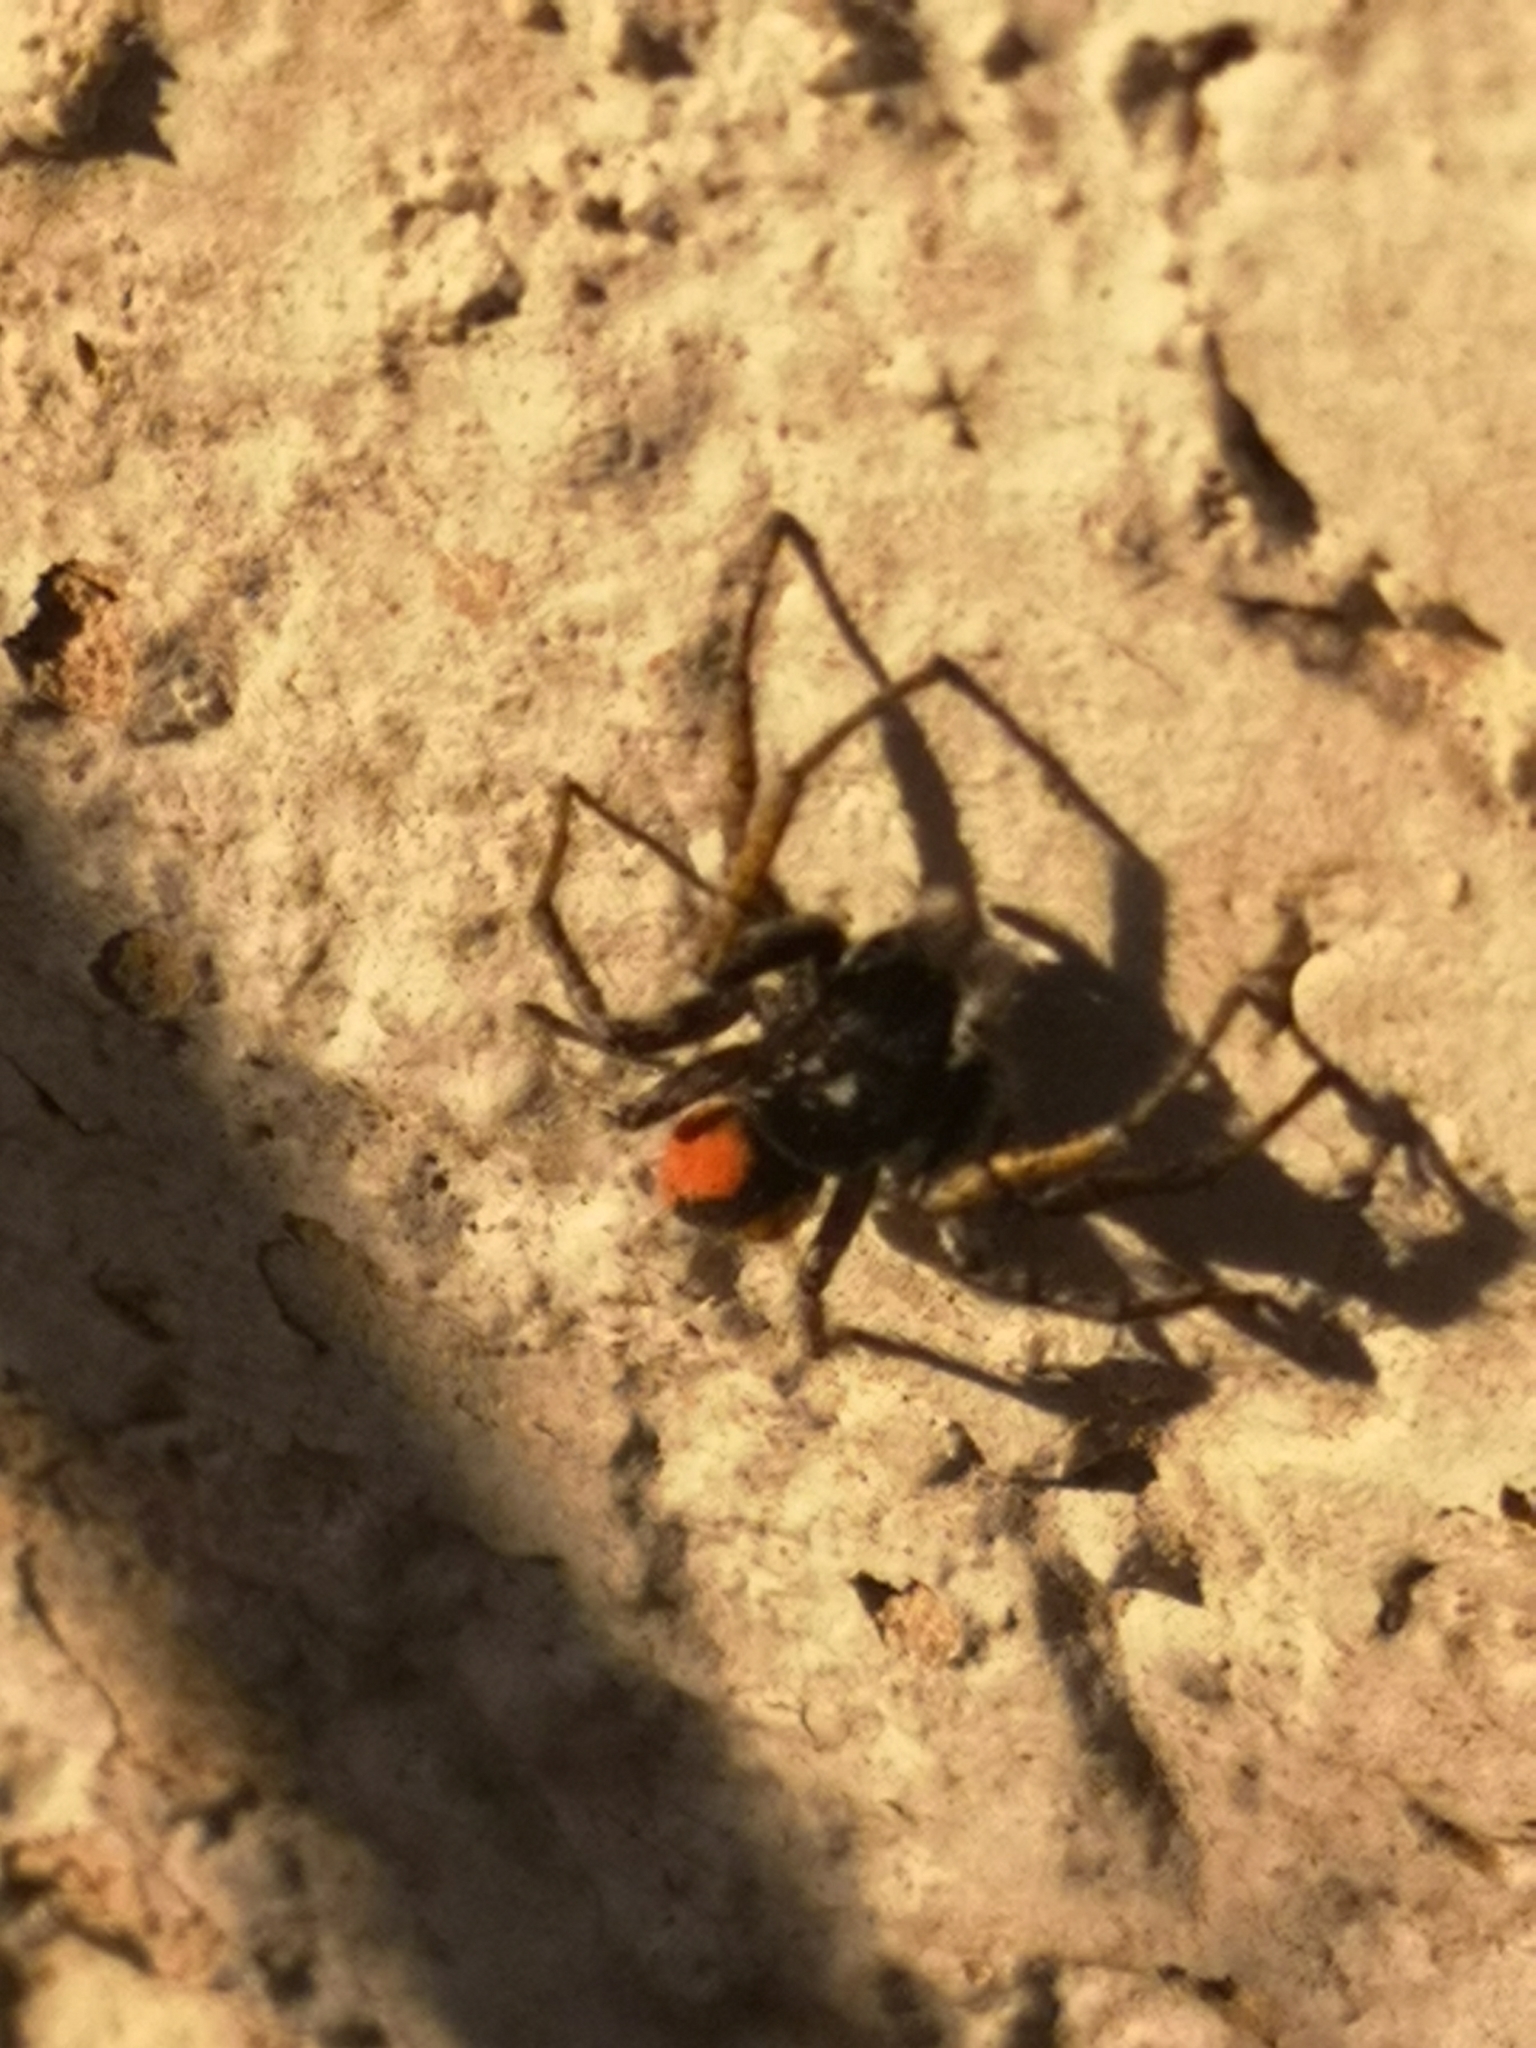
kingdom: Animalia
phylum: Arthropoda
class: Arachnida
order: Araneae
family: Salticidae
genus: Philaeus
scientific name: Philaeus chrysops
